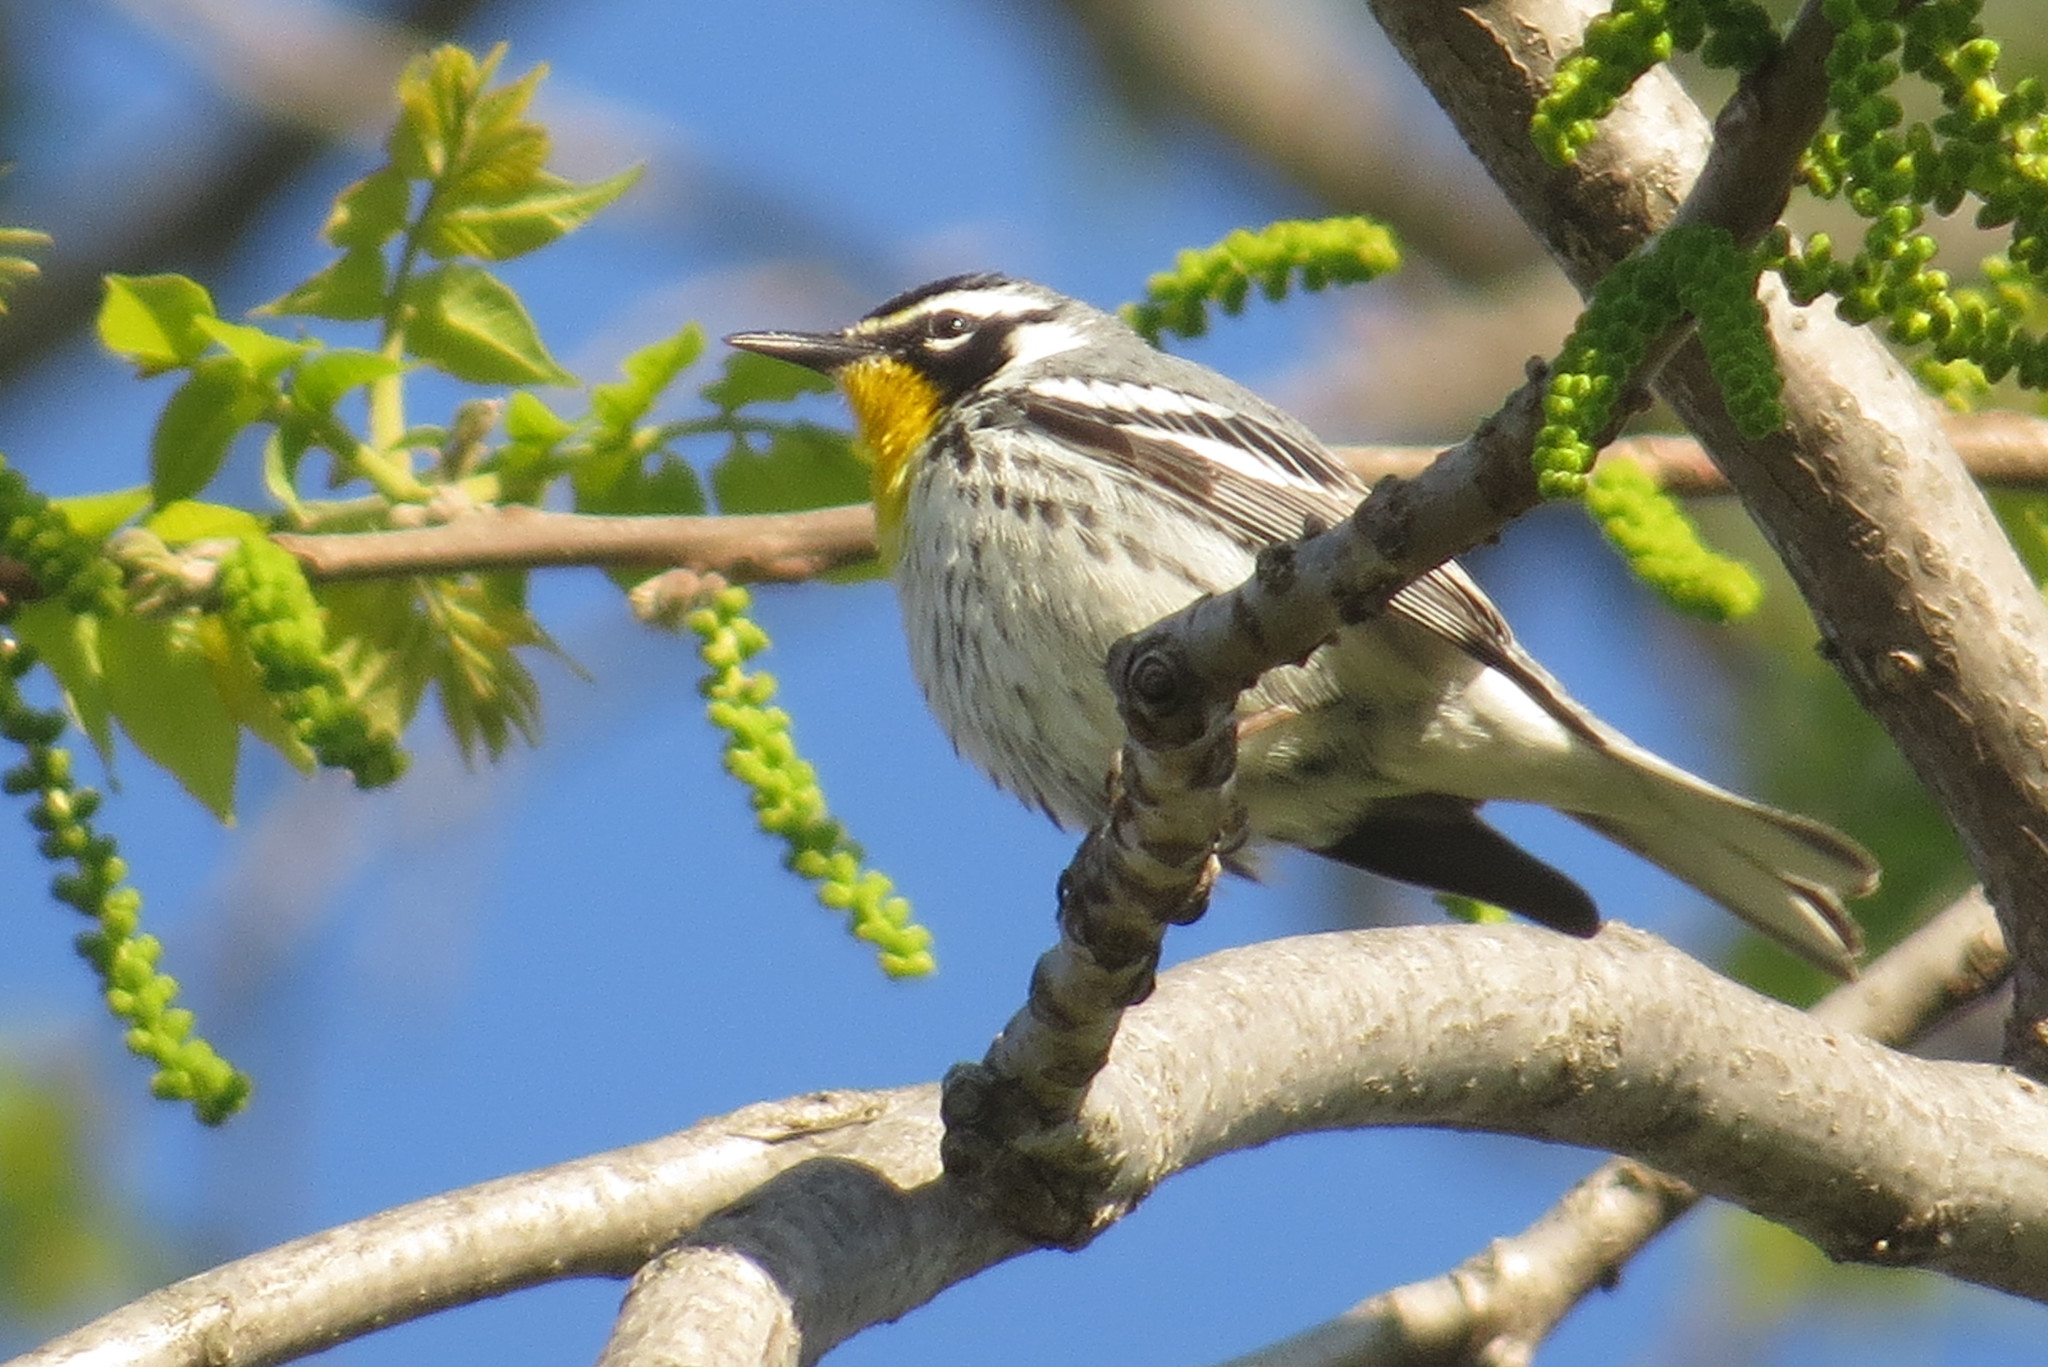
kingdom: Animalia
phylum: Chordata
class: Aves
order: Passeriformes
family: Parulidae
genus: Setophaga
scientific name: Setophaga dominica
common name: Yellow-throated warbler
